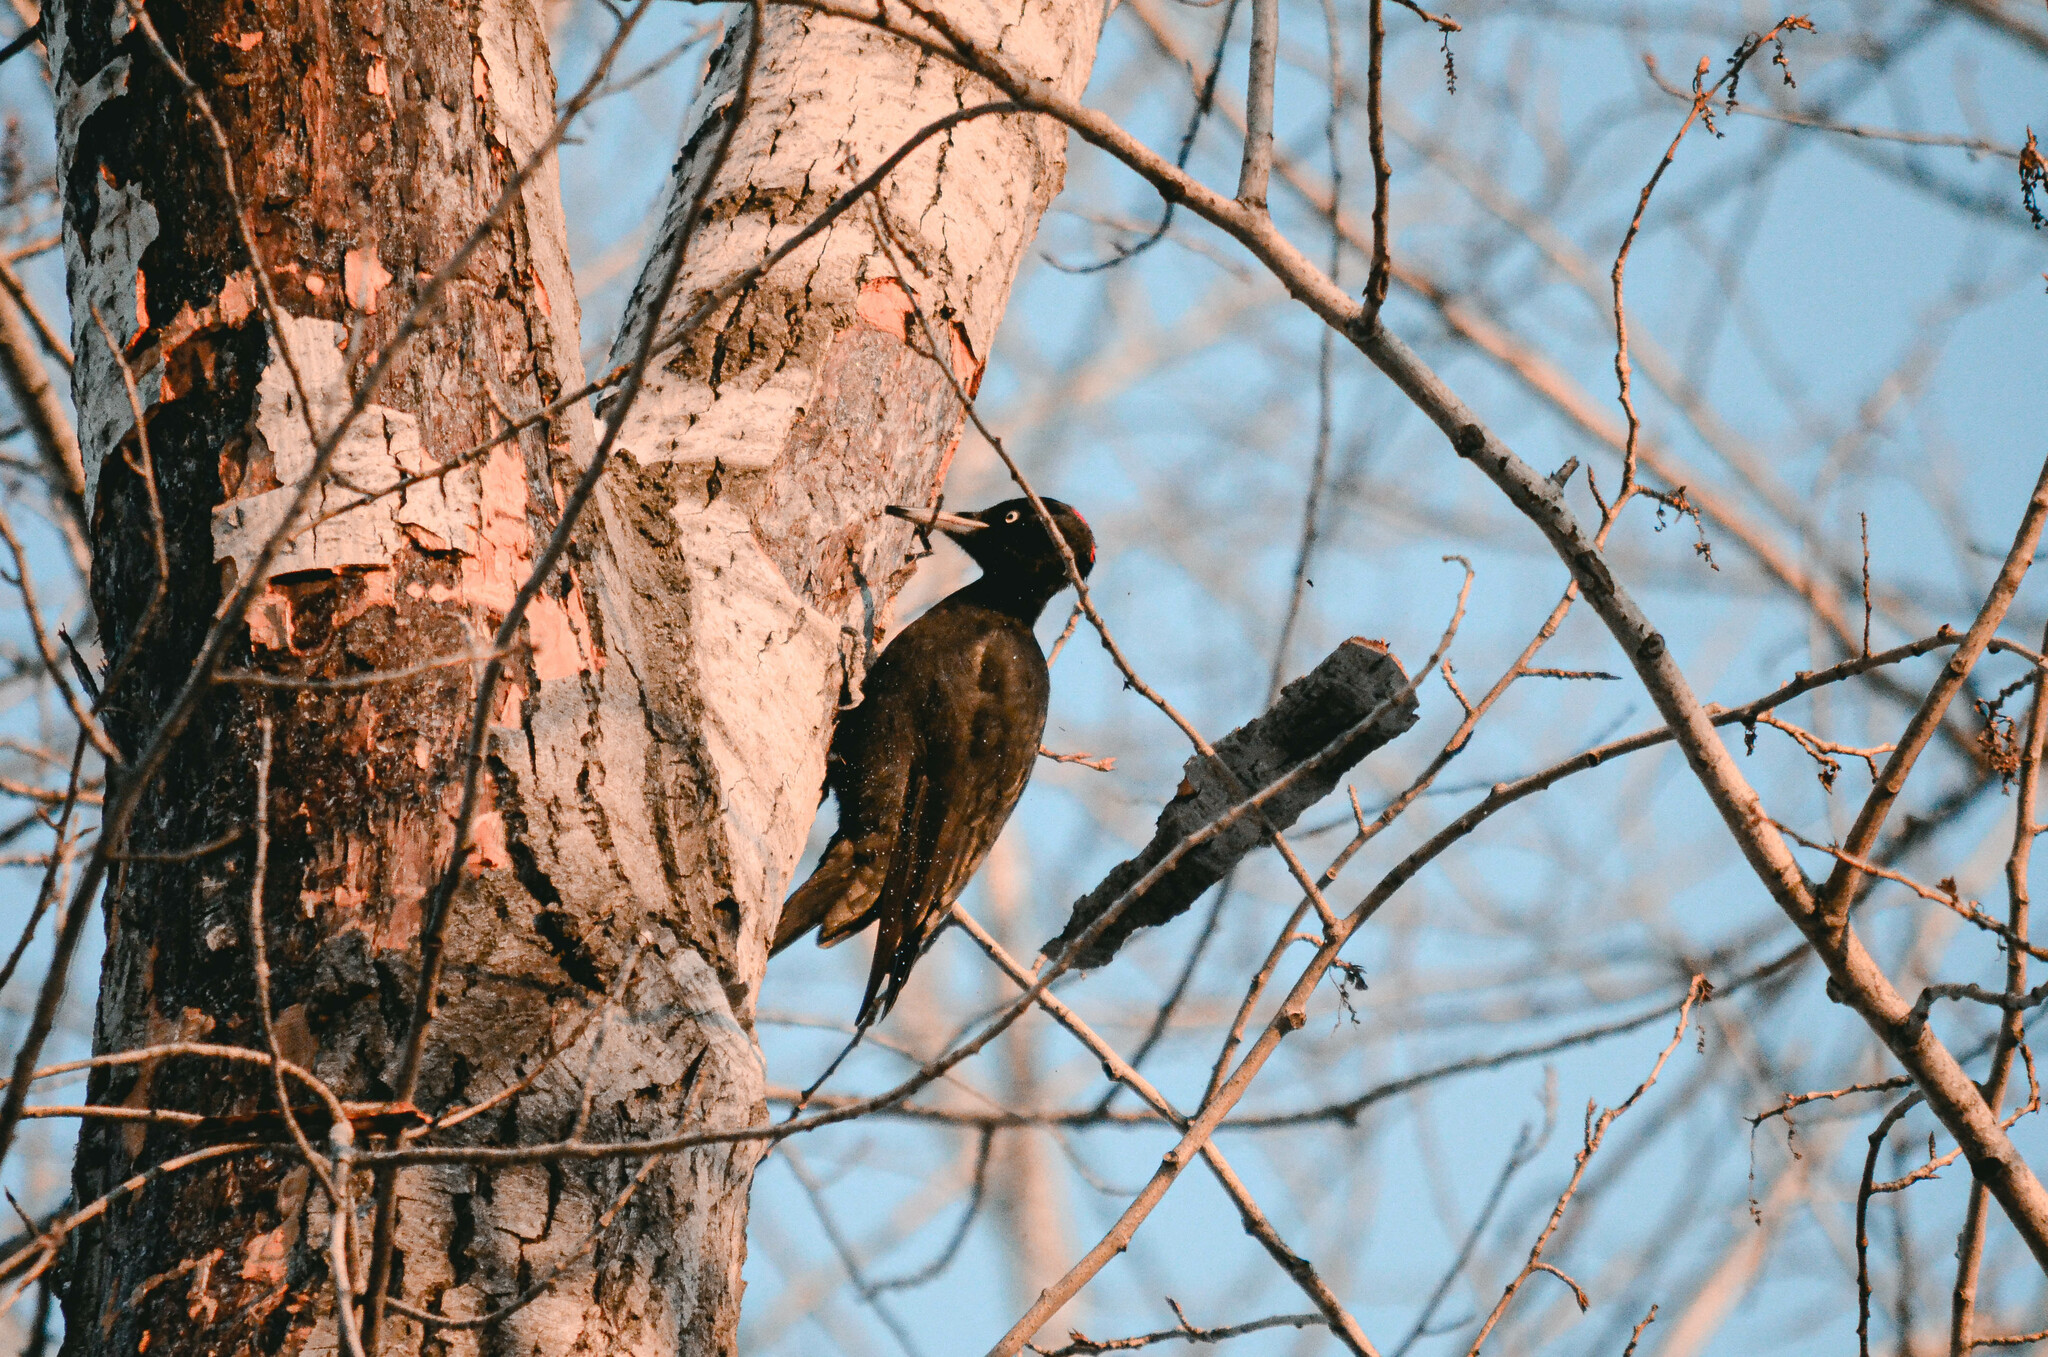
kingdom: Animalia
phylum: Chordata
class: Aves
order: Piciformes
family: Picidae
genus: Dryocopus
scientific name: Dryocopus martius
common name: Black woodpecker
